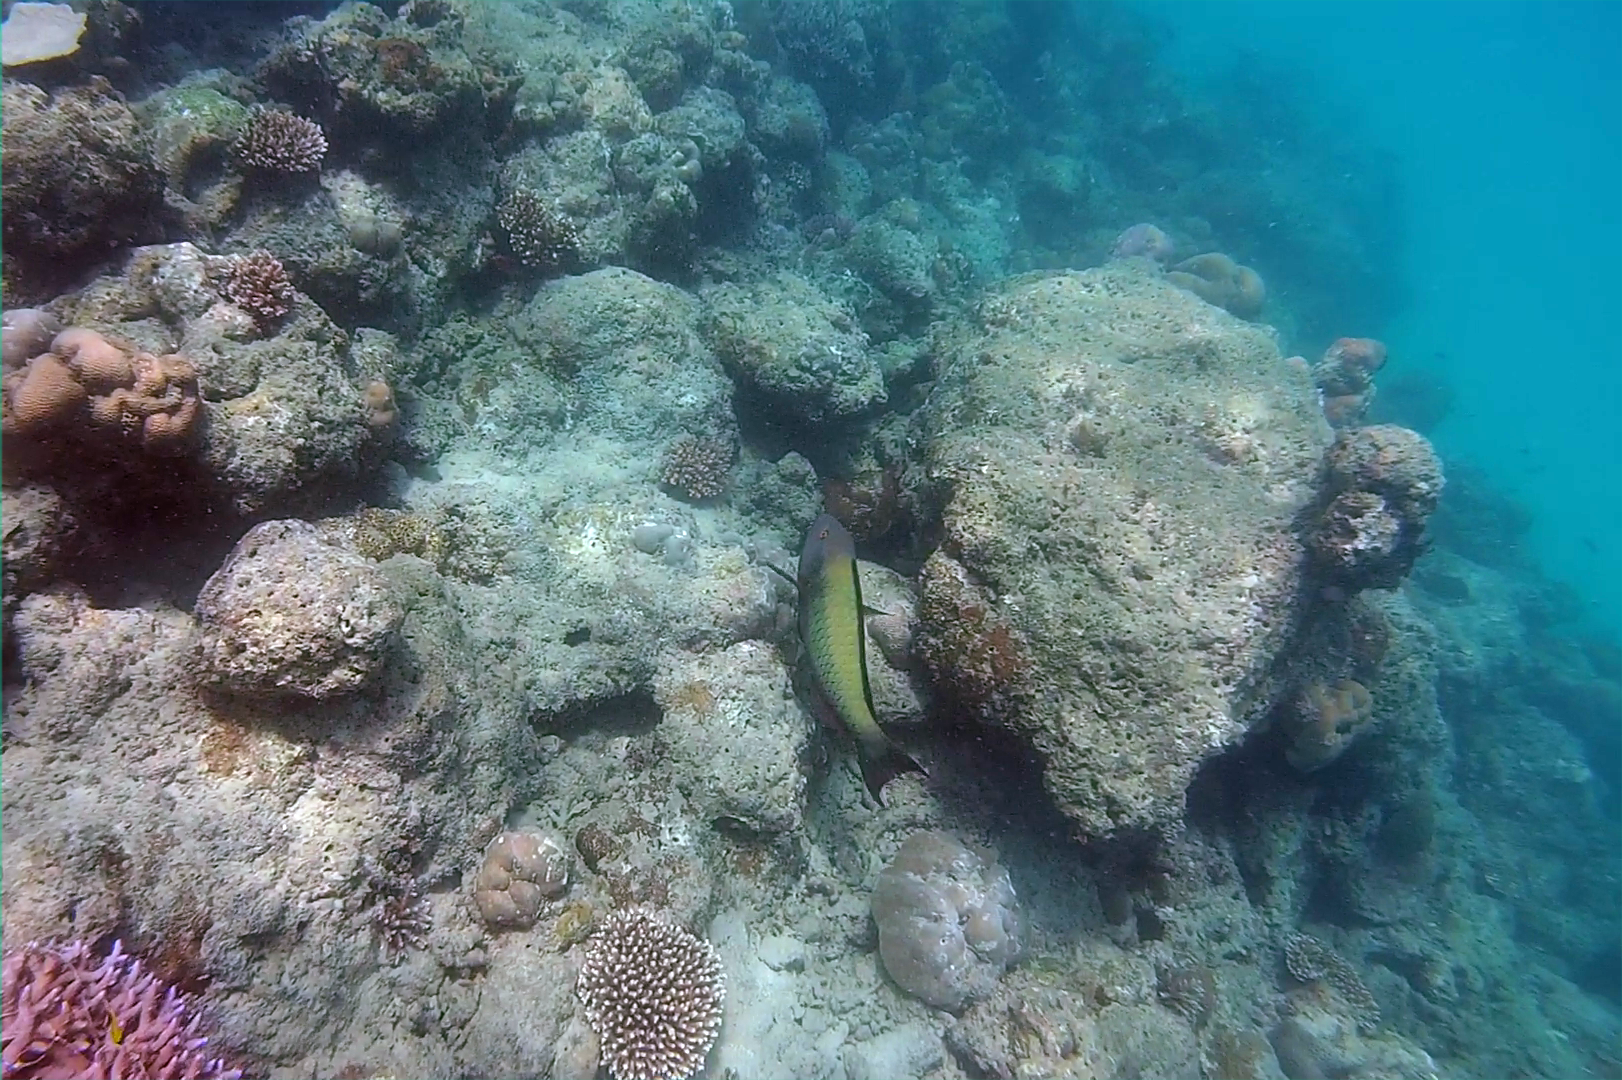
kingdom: Animalia
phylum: Chordata
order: Perciformes
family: Scaridae
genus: Cetoscarus
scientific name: Cetoscarus ocellatus
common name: Bicolor parrotfish
